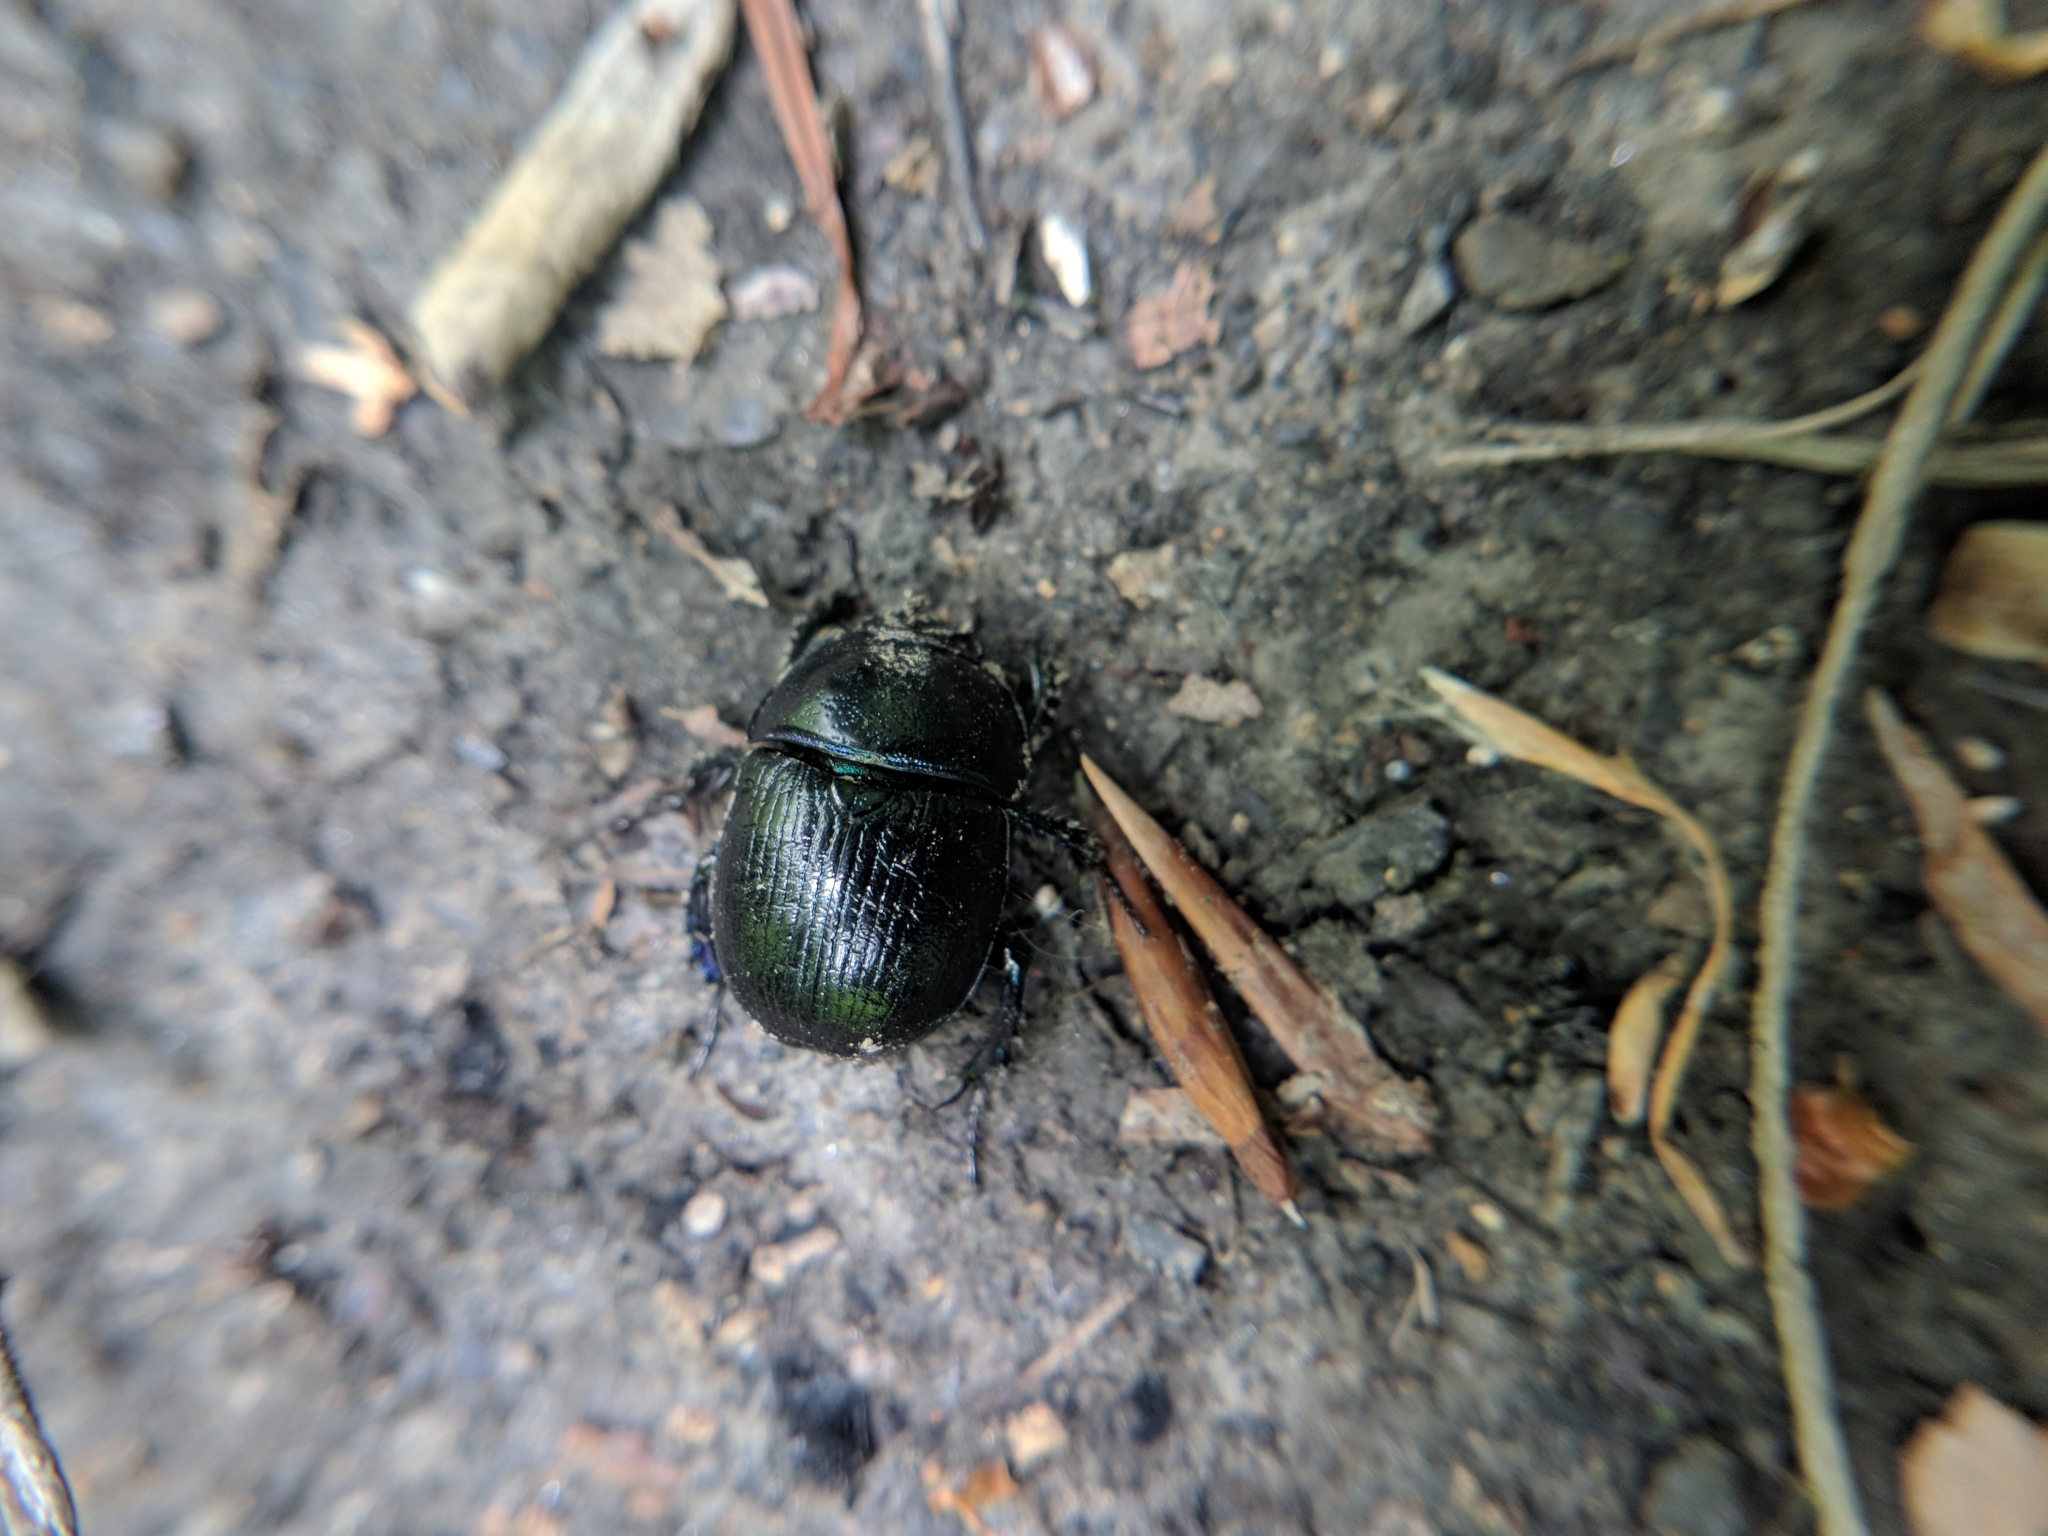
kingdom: Animalia
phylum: Arthropoda
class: Insecta
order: Coleoptera
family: Geotrupidae
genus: Anoplotrupes
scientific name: Anoplotrupes stercorosus
